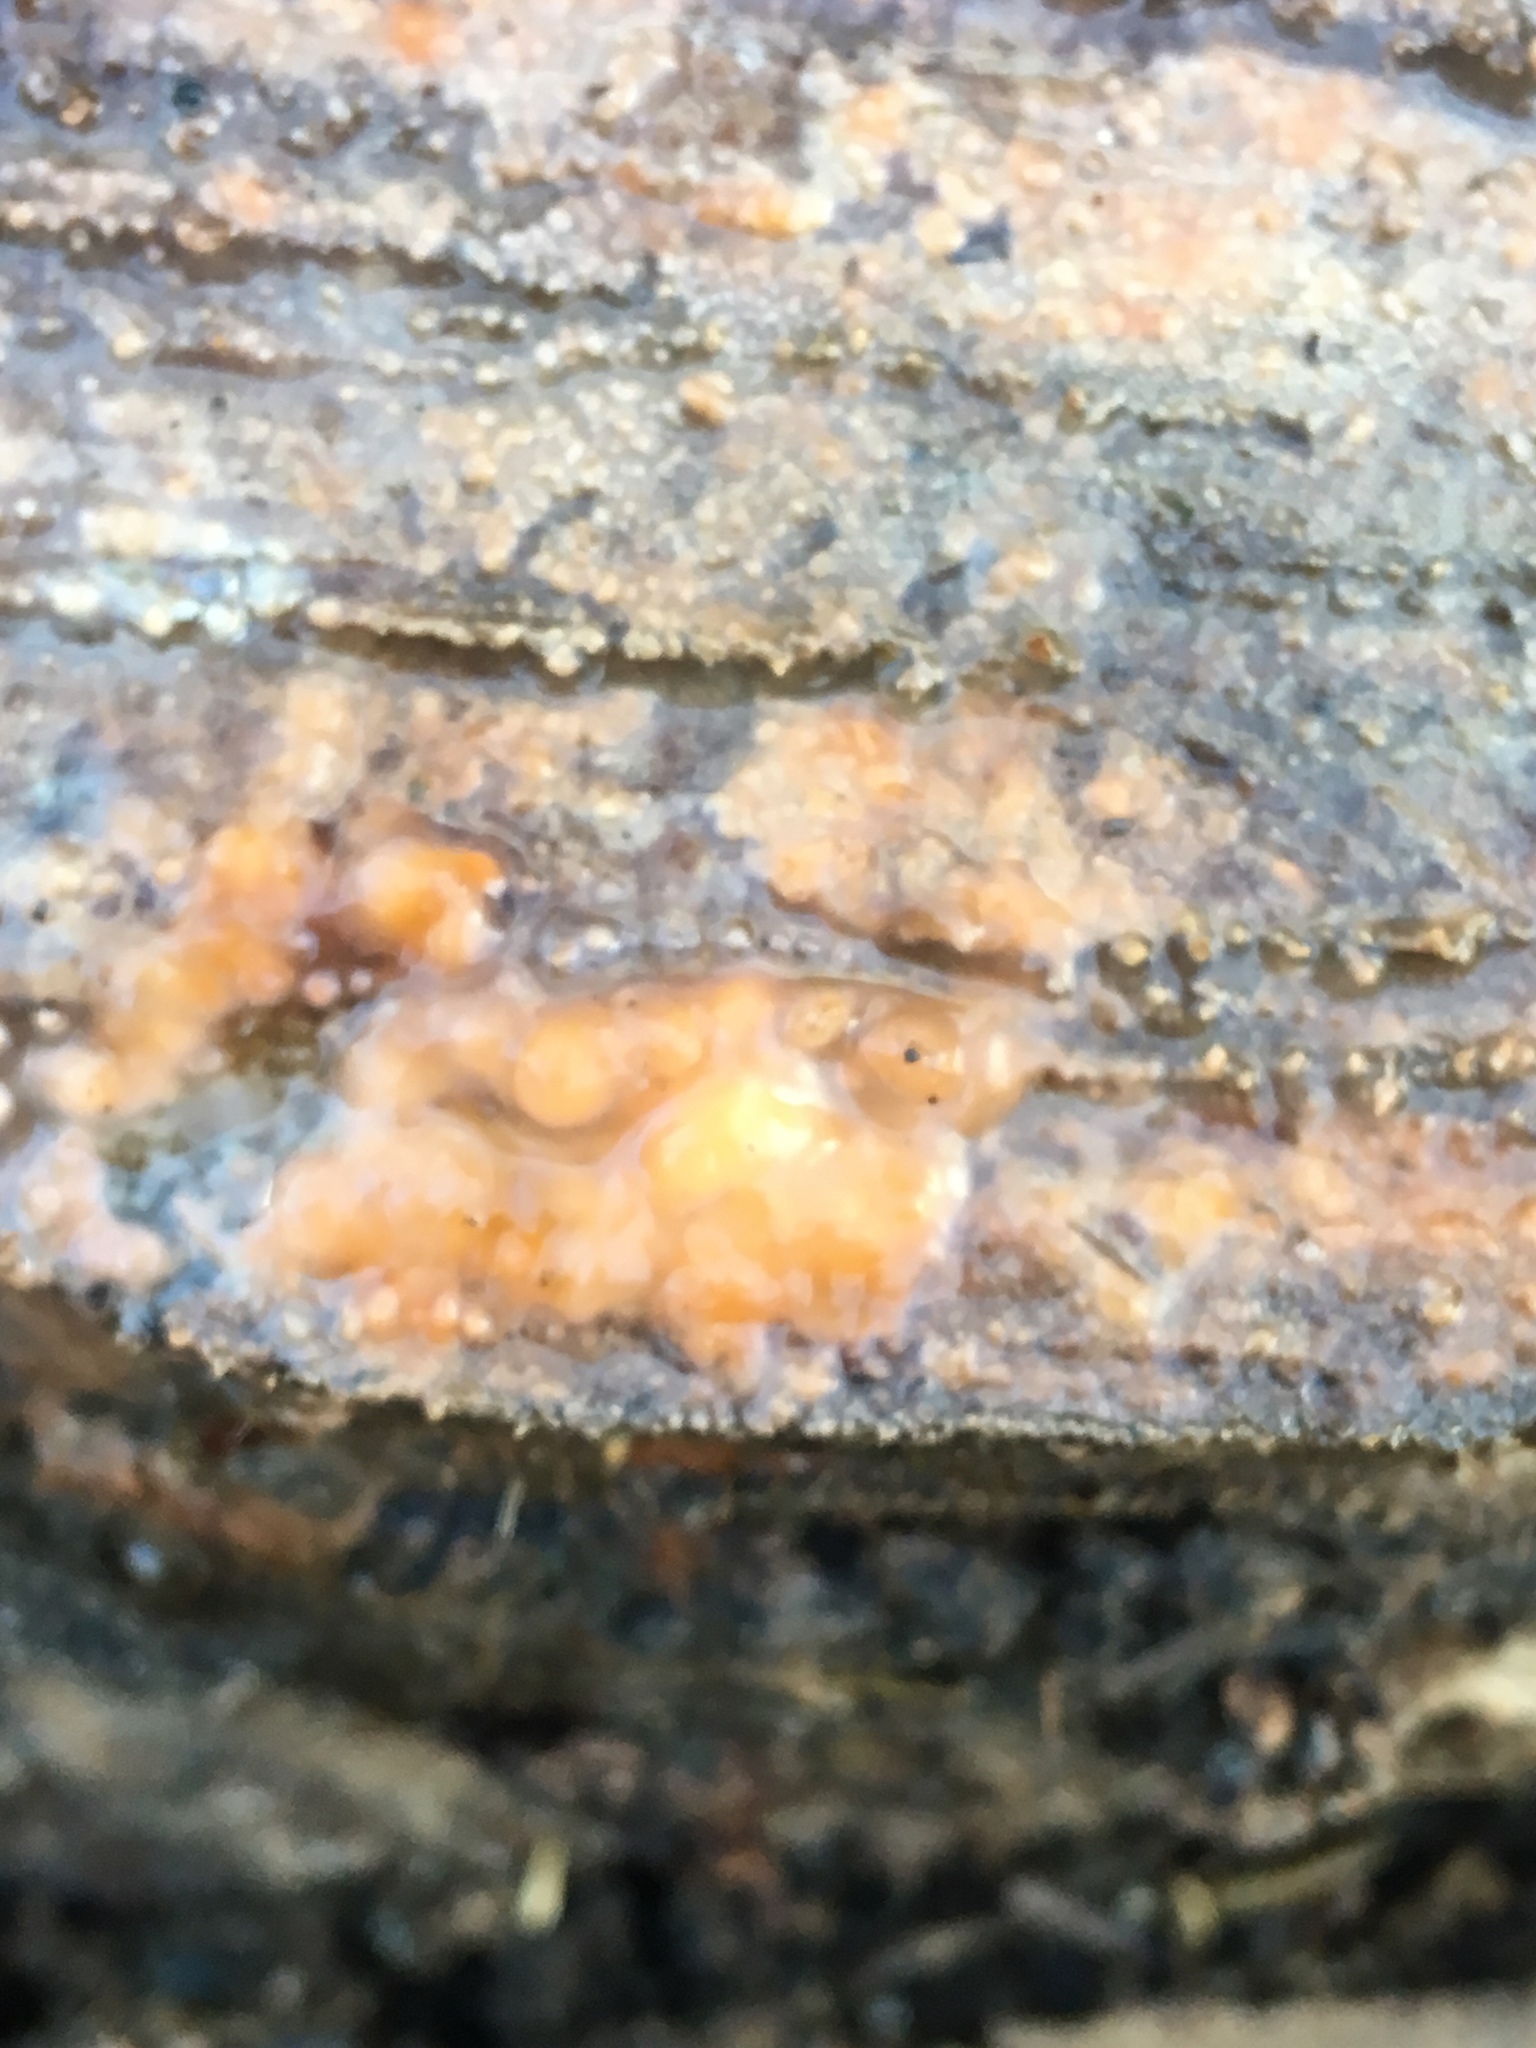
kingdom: Fungi
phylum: Ascomycota
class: Sordariomycetes
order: Hypocreales
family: Nectriaceae
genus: Fusicolla
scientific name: Fusicolla merismoides
